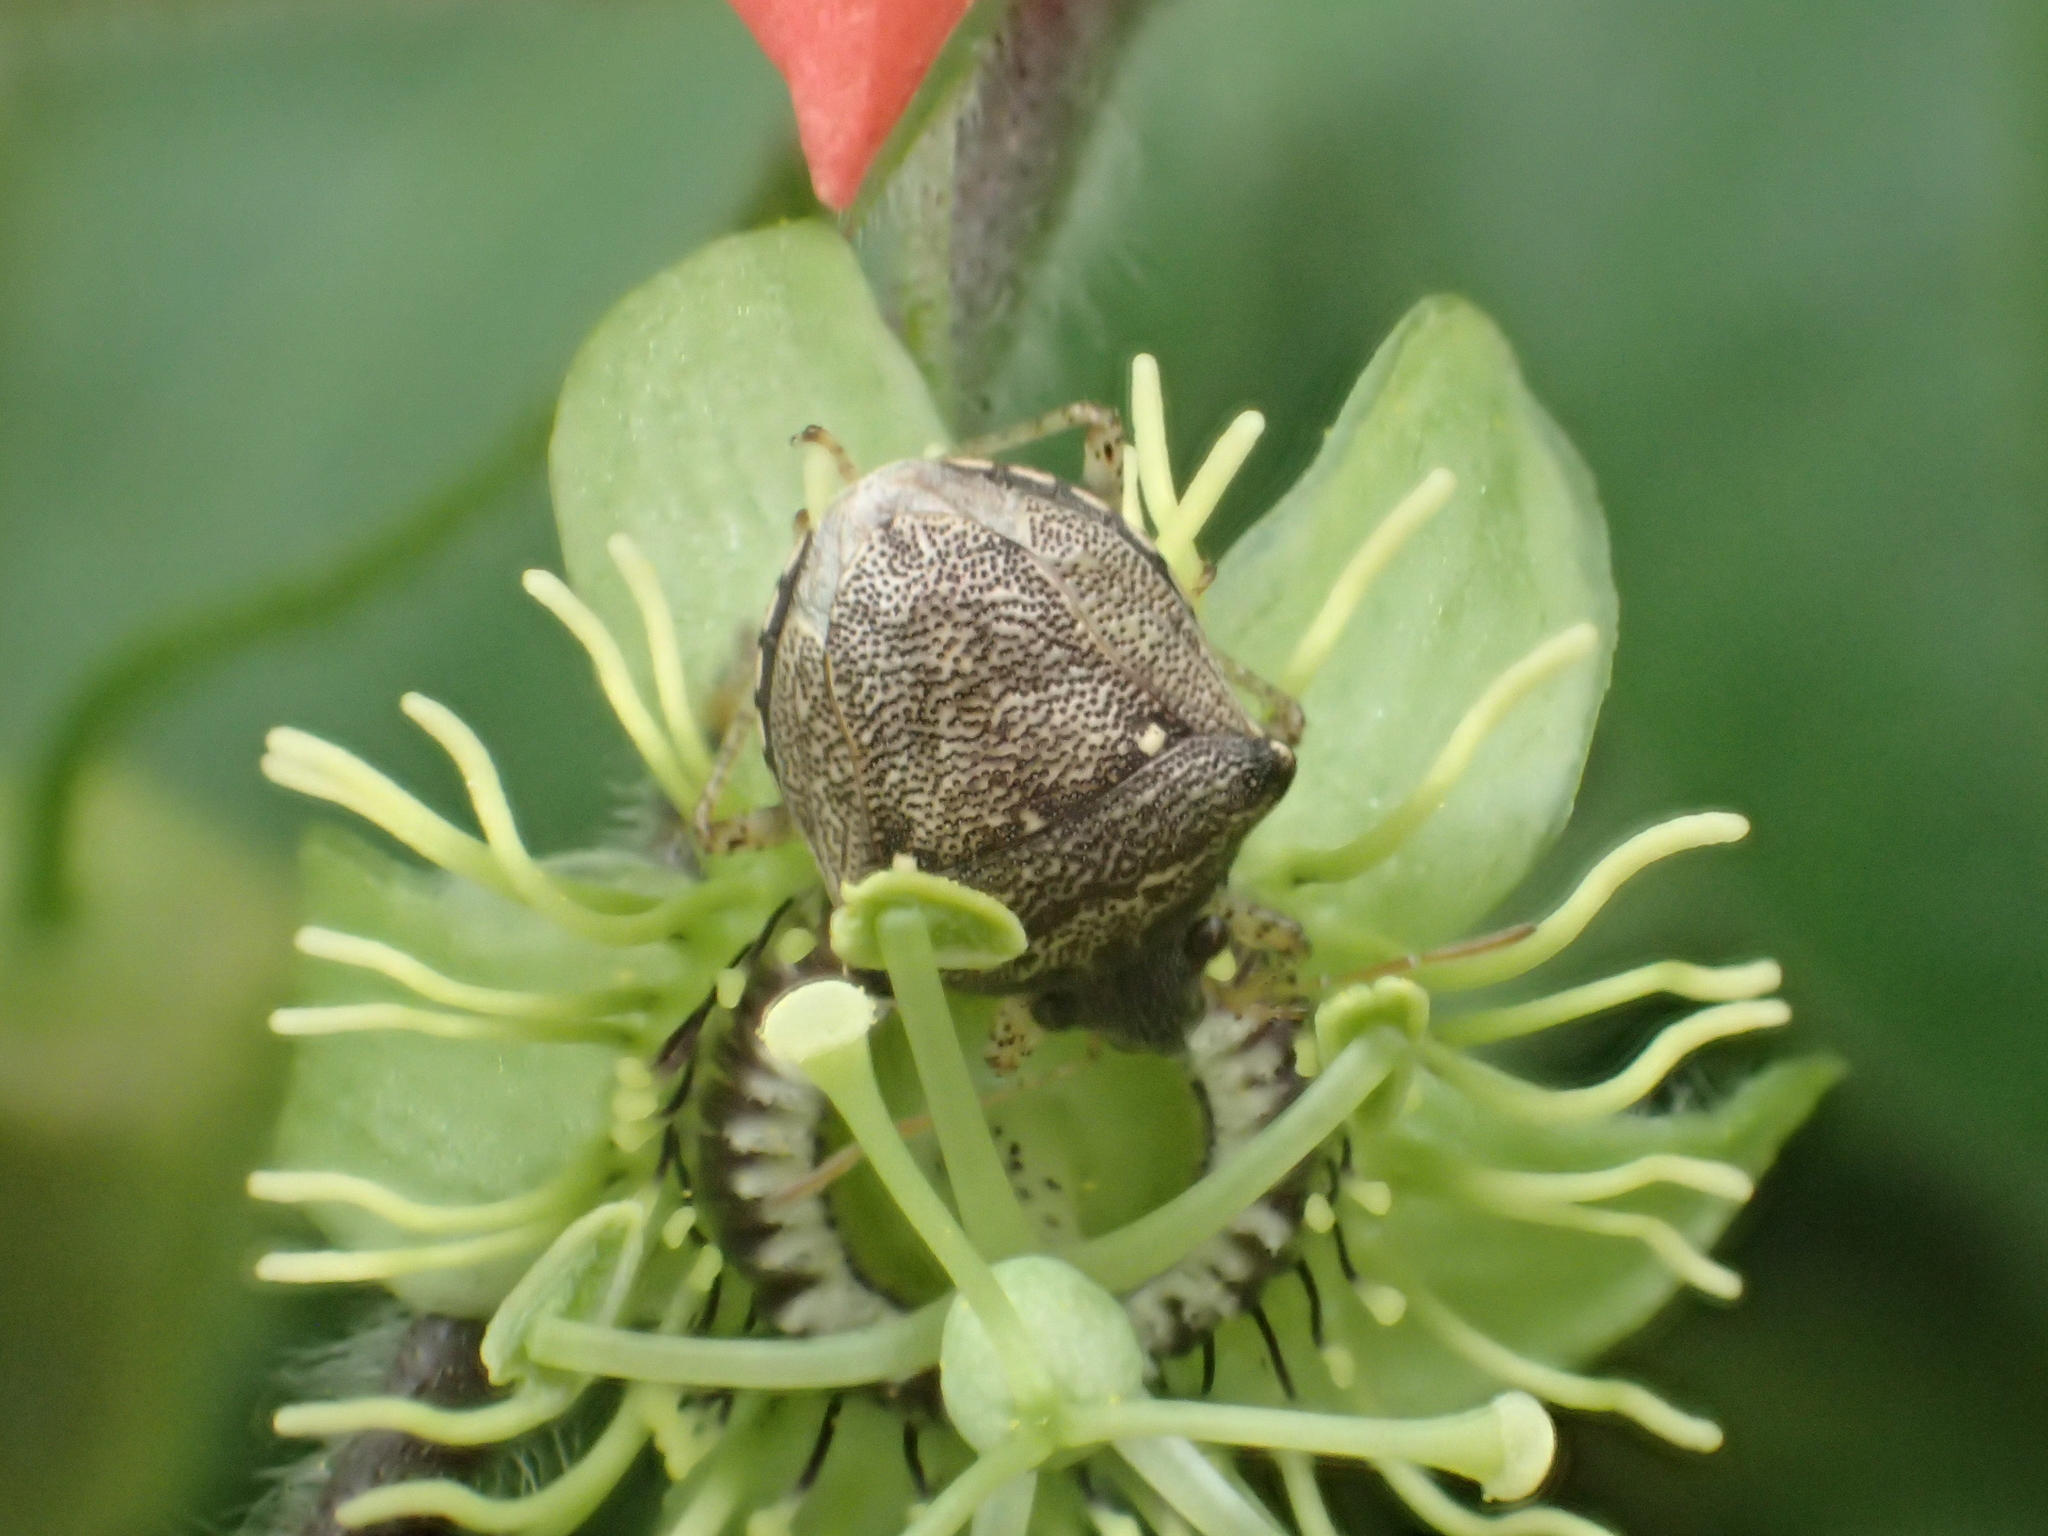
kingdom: Animalia
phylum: Arthropoda
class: Insecta
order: Hemiptera
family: Pentatomidae
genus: Eysarcoris
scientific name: Eysarcoris guttigerus
